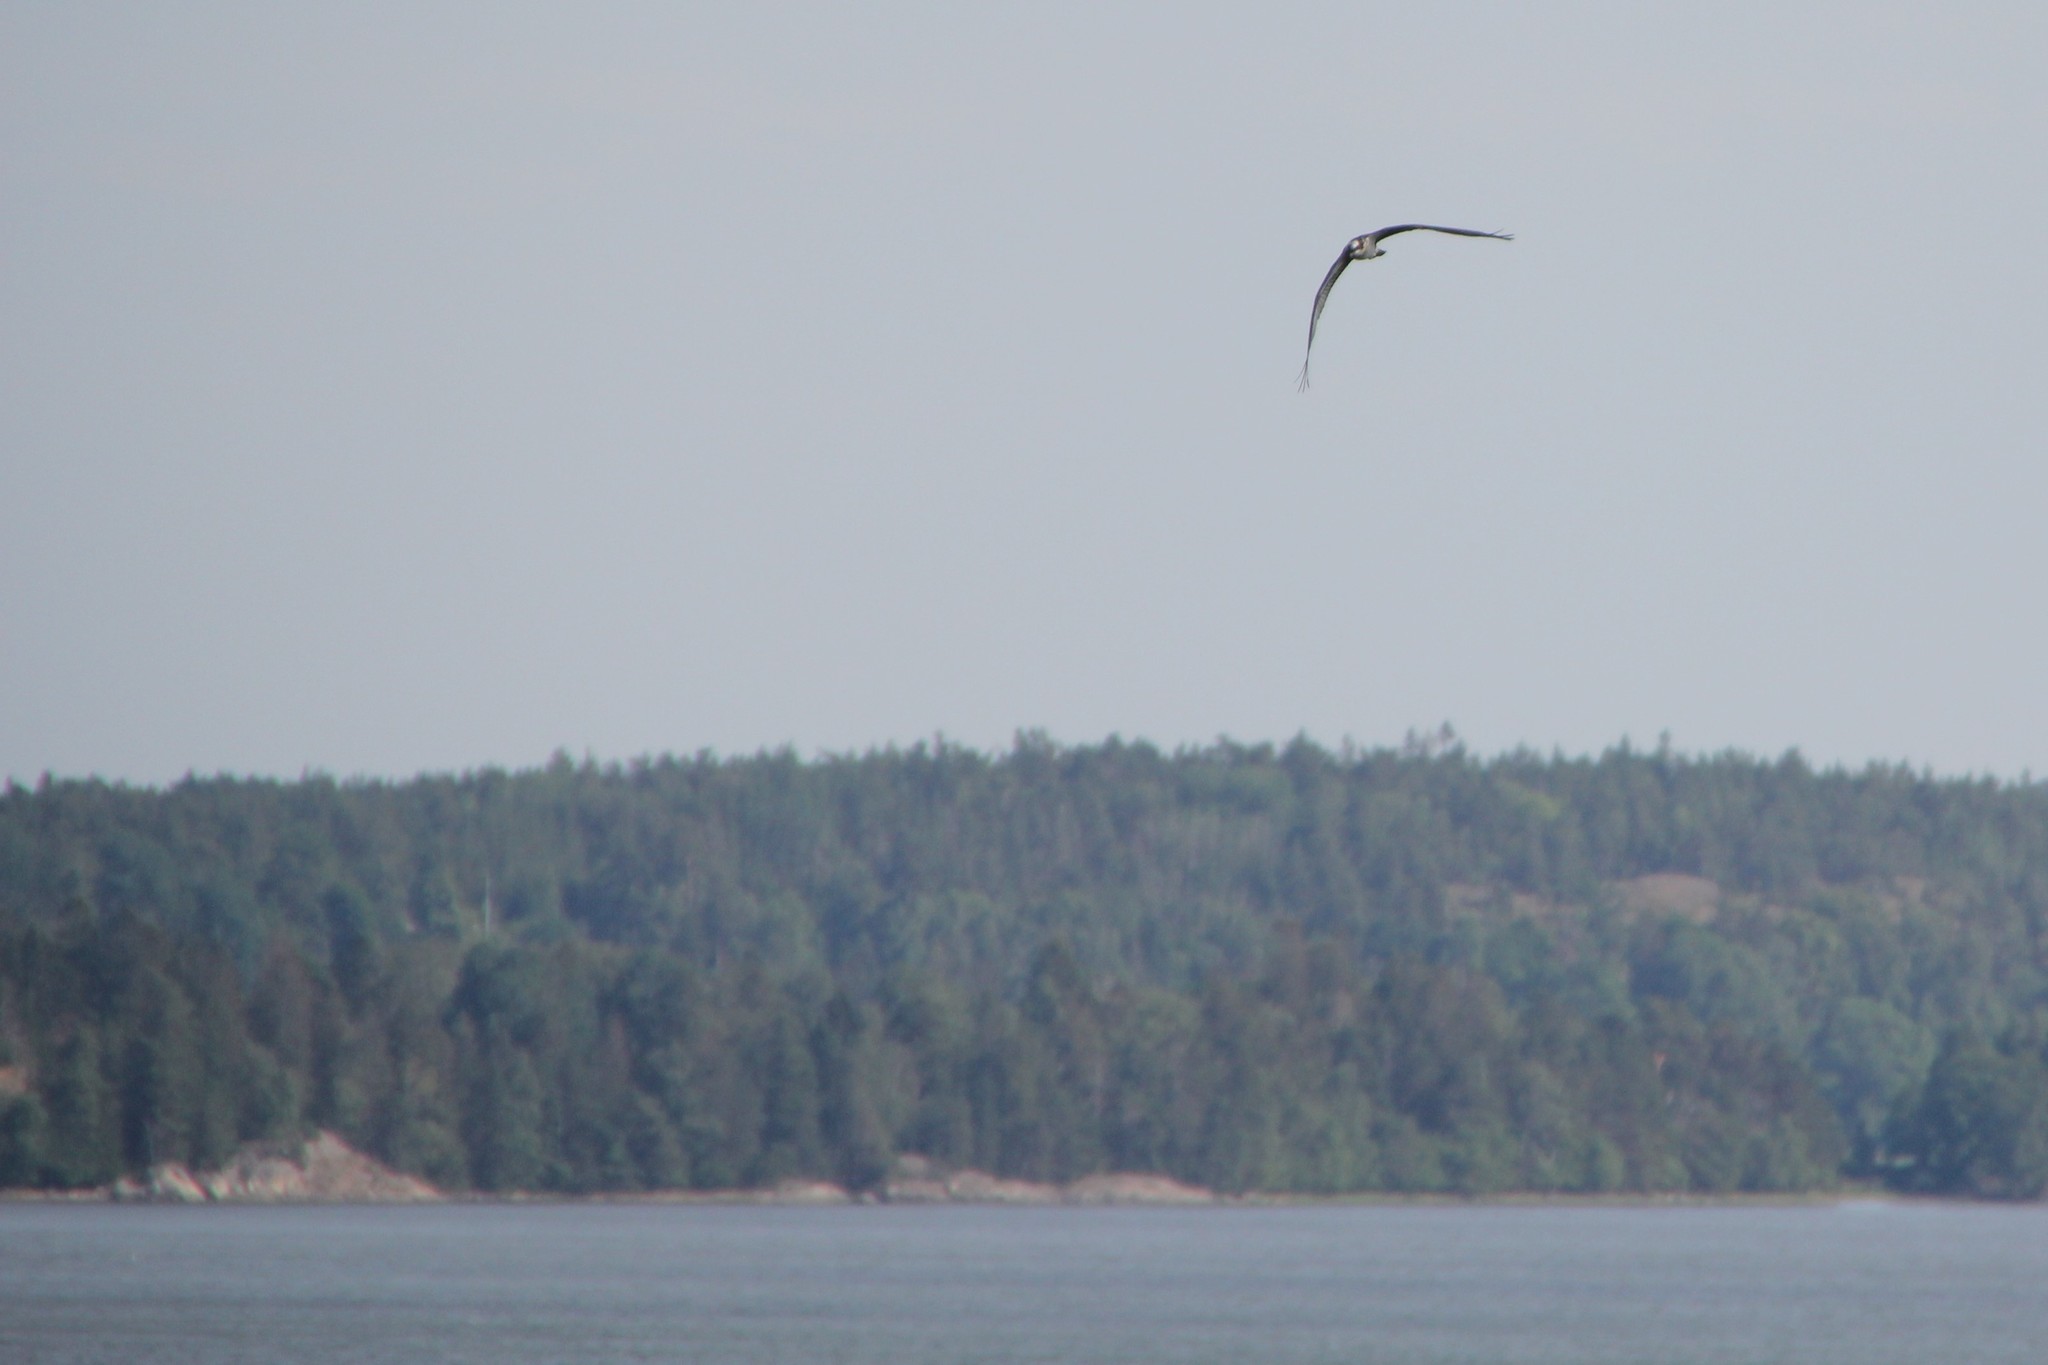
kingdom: Animalia
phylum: Chordata
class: Aves
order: Accipitriformes
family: Pandionidae
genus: Pandion
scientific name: Pandion haliaetus
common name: Osprey
